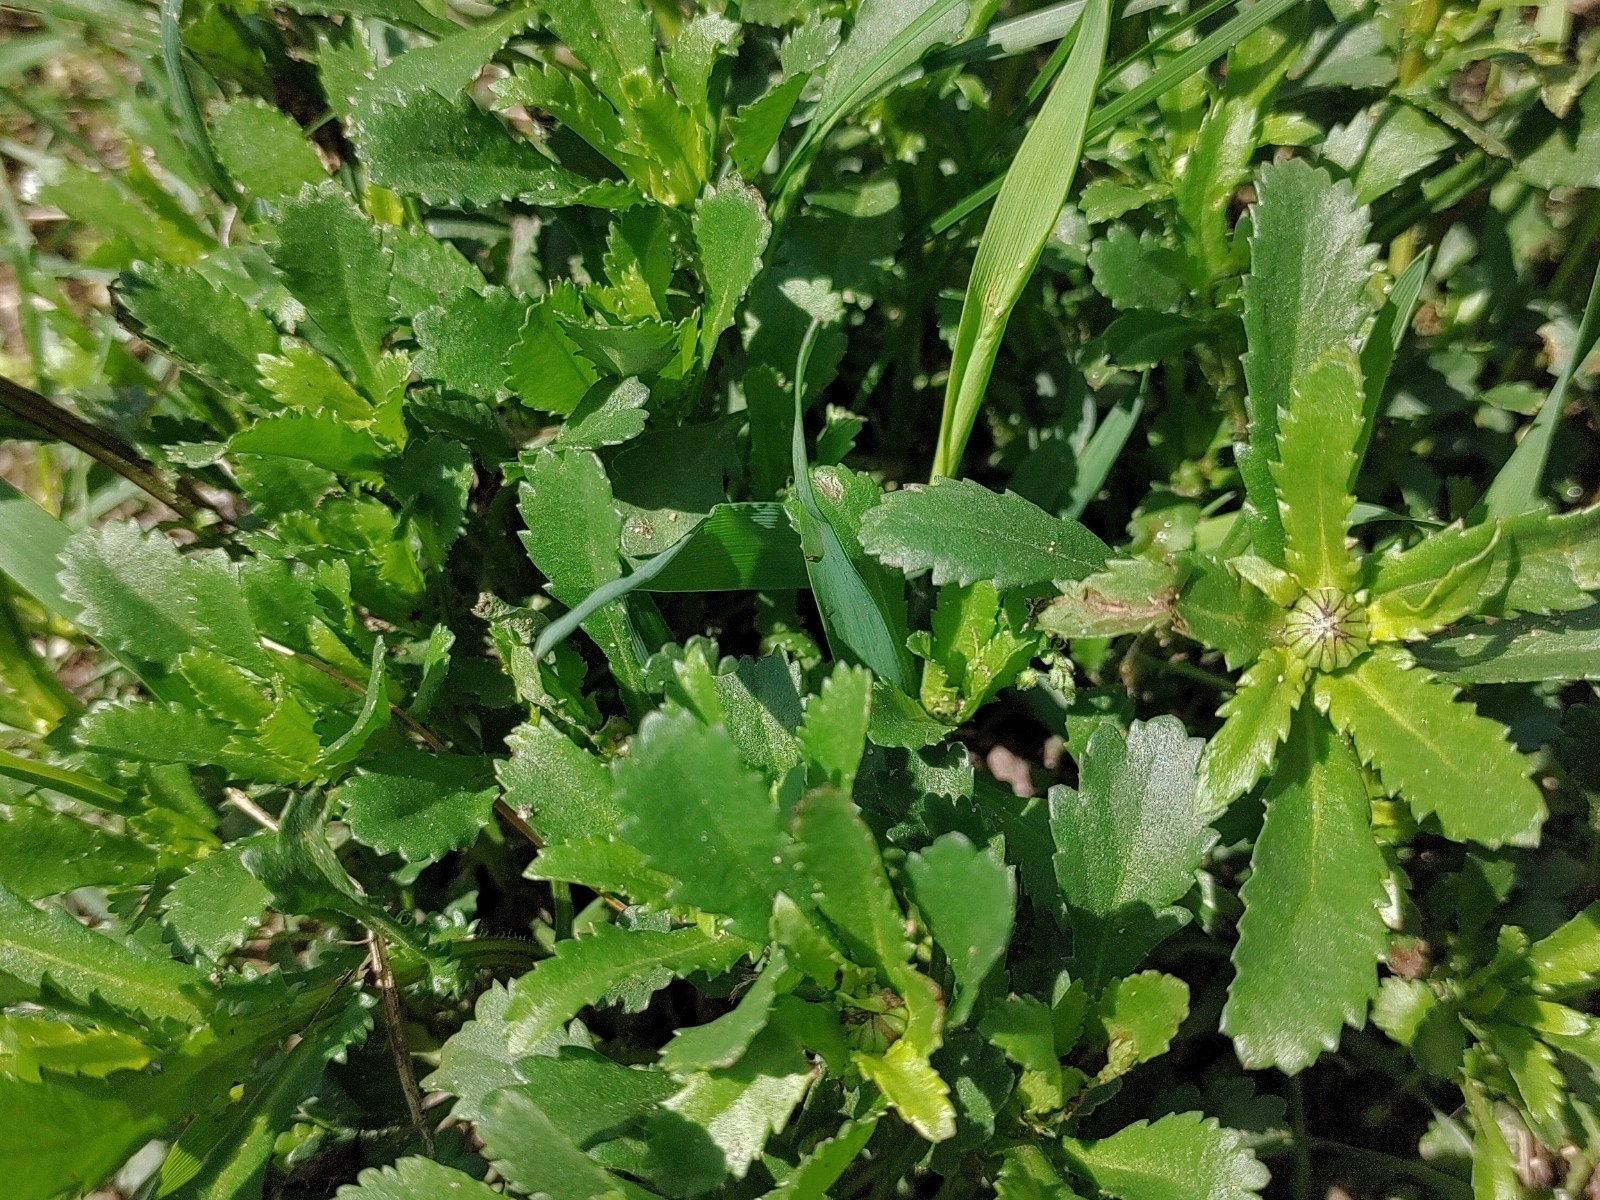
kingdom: Plantae
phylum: Tracheophyta
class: Magnoliopsida
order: Asterales
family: Asteraceae
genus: Leucanthemum
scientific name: Leucanthemum vulgare
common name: Oxeye daisy
